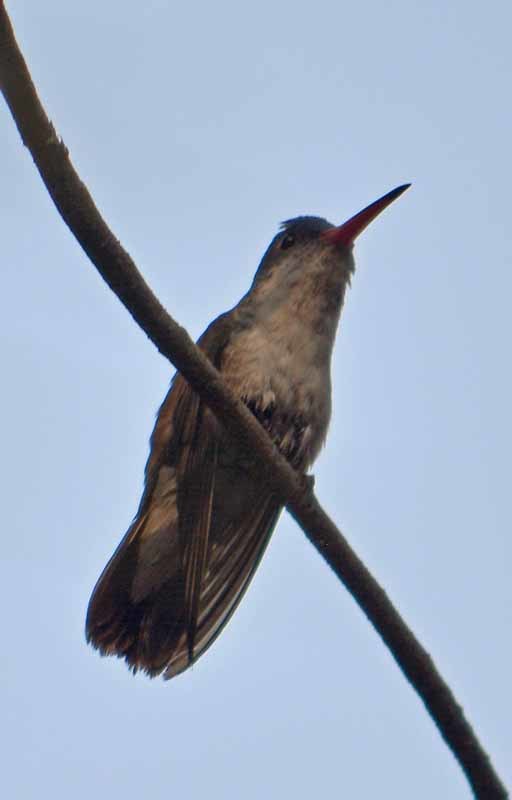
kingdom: Animalia
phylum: Chordata
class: Aves
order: Apodiformes
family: Trochilidae
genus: Leucolia
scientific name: Leucolia violiceps
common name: Violet-crowned hummingbird
